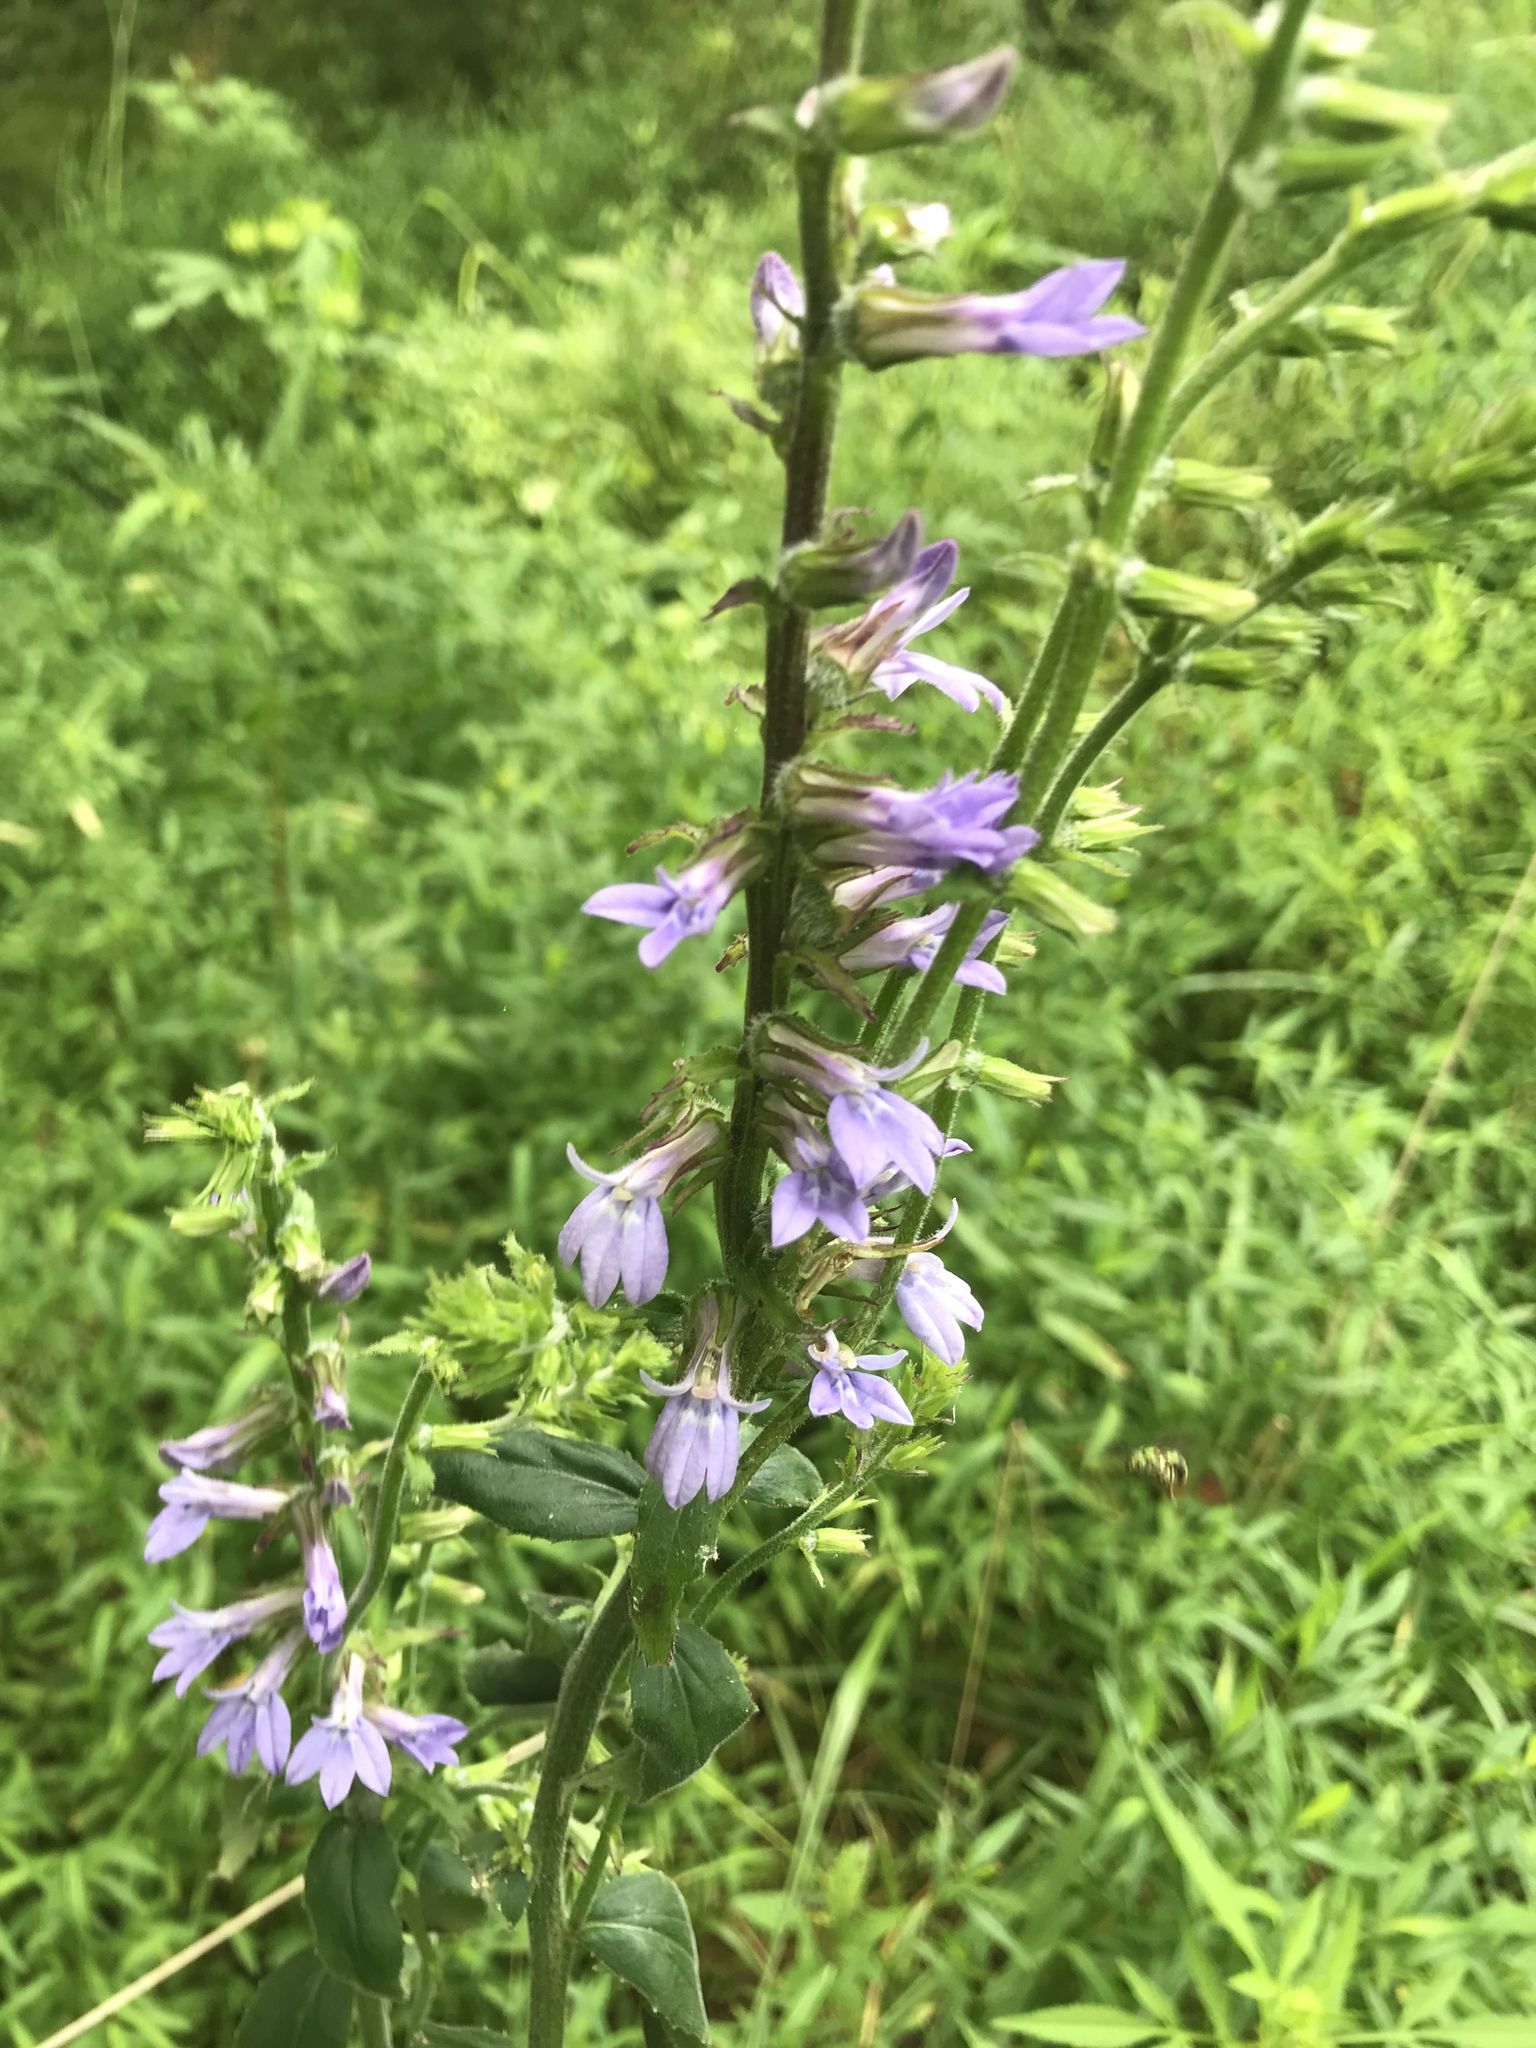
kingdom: Plantae
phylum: Tracheophyta
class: Magnoliopsida
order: Asterales
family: Campanulaceae
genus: Lobelia
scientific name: Lobelia puberula
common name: Purple dewdrop
